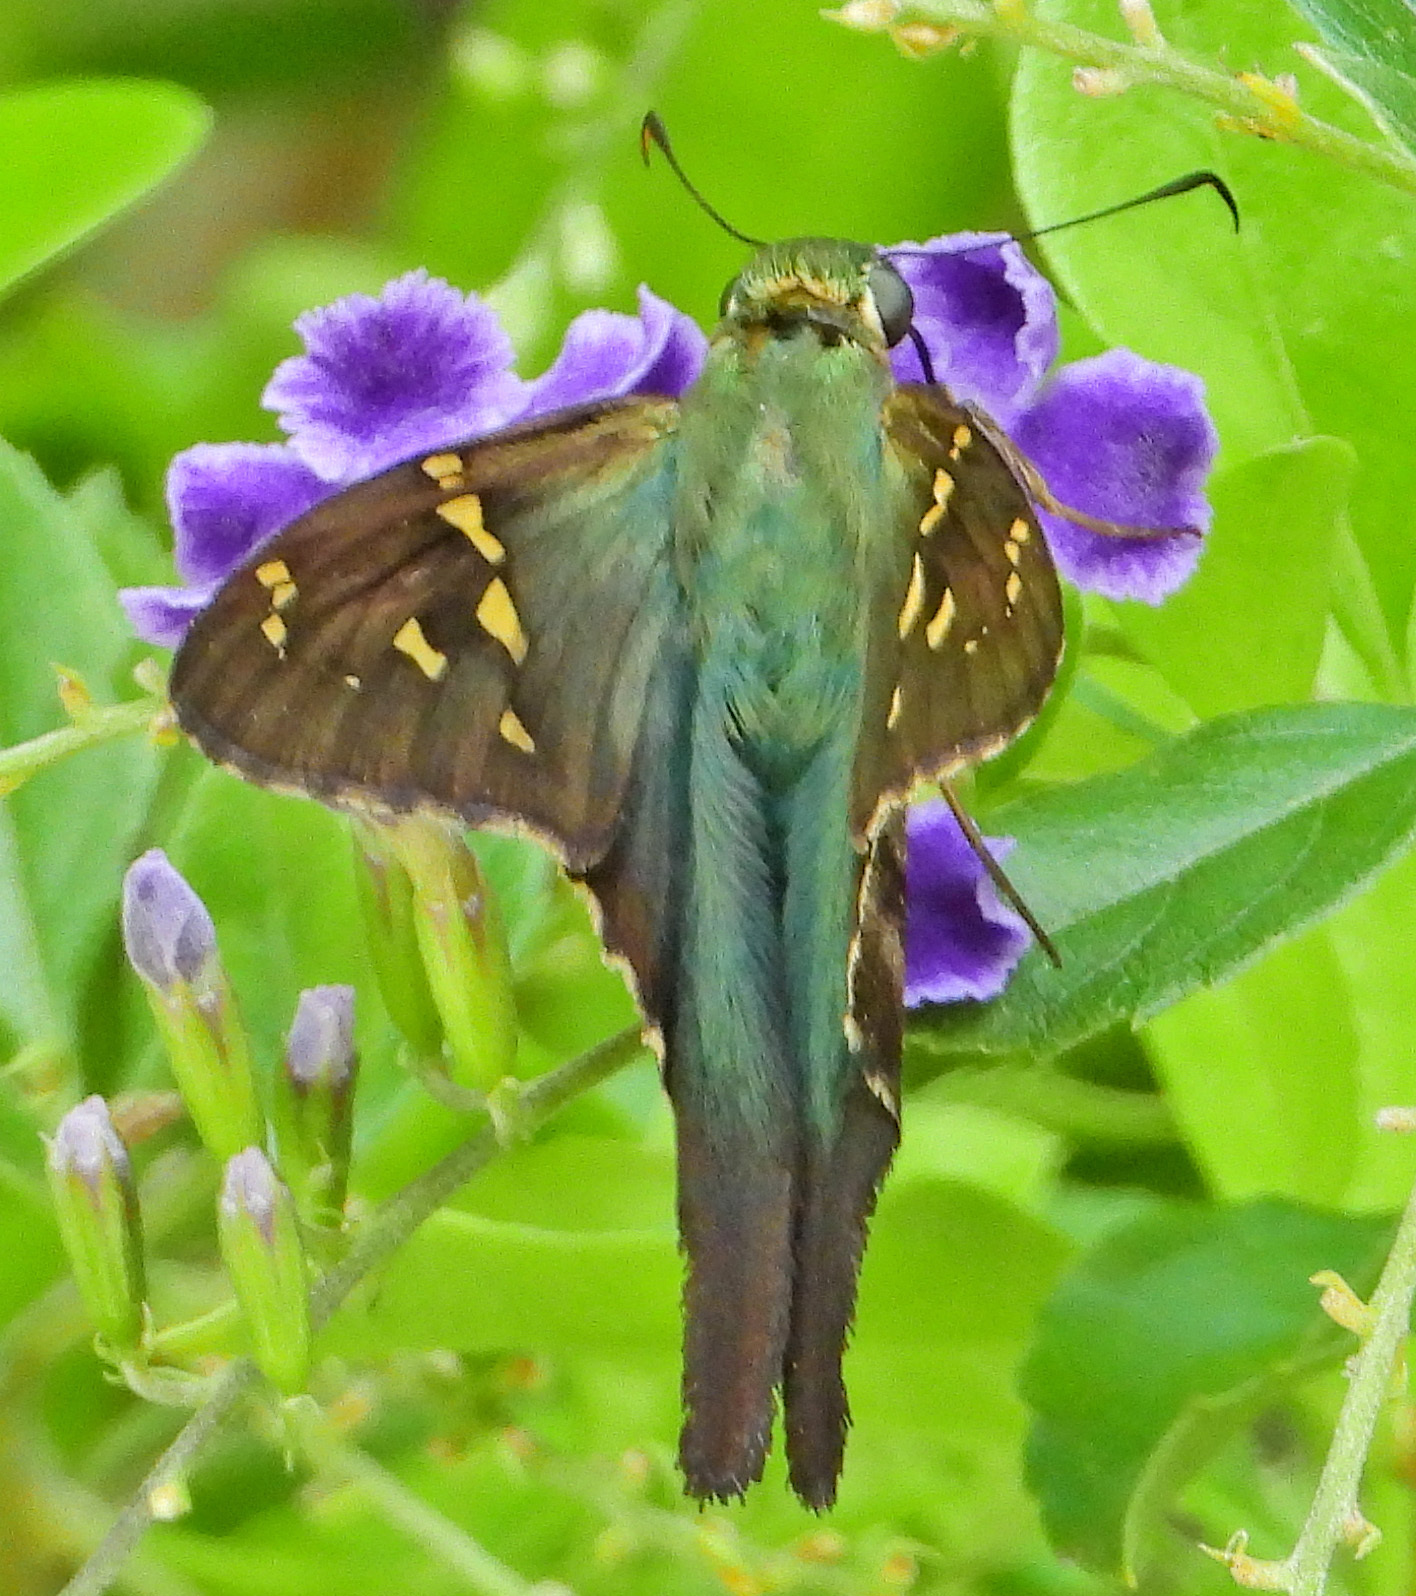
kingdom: Animalia
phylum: Arthropoda
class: Insecta
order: Lepidoptera
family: Hesperiidae
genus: Urbanus
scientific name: Urbanus proteus
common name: Long-tailed skipper
